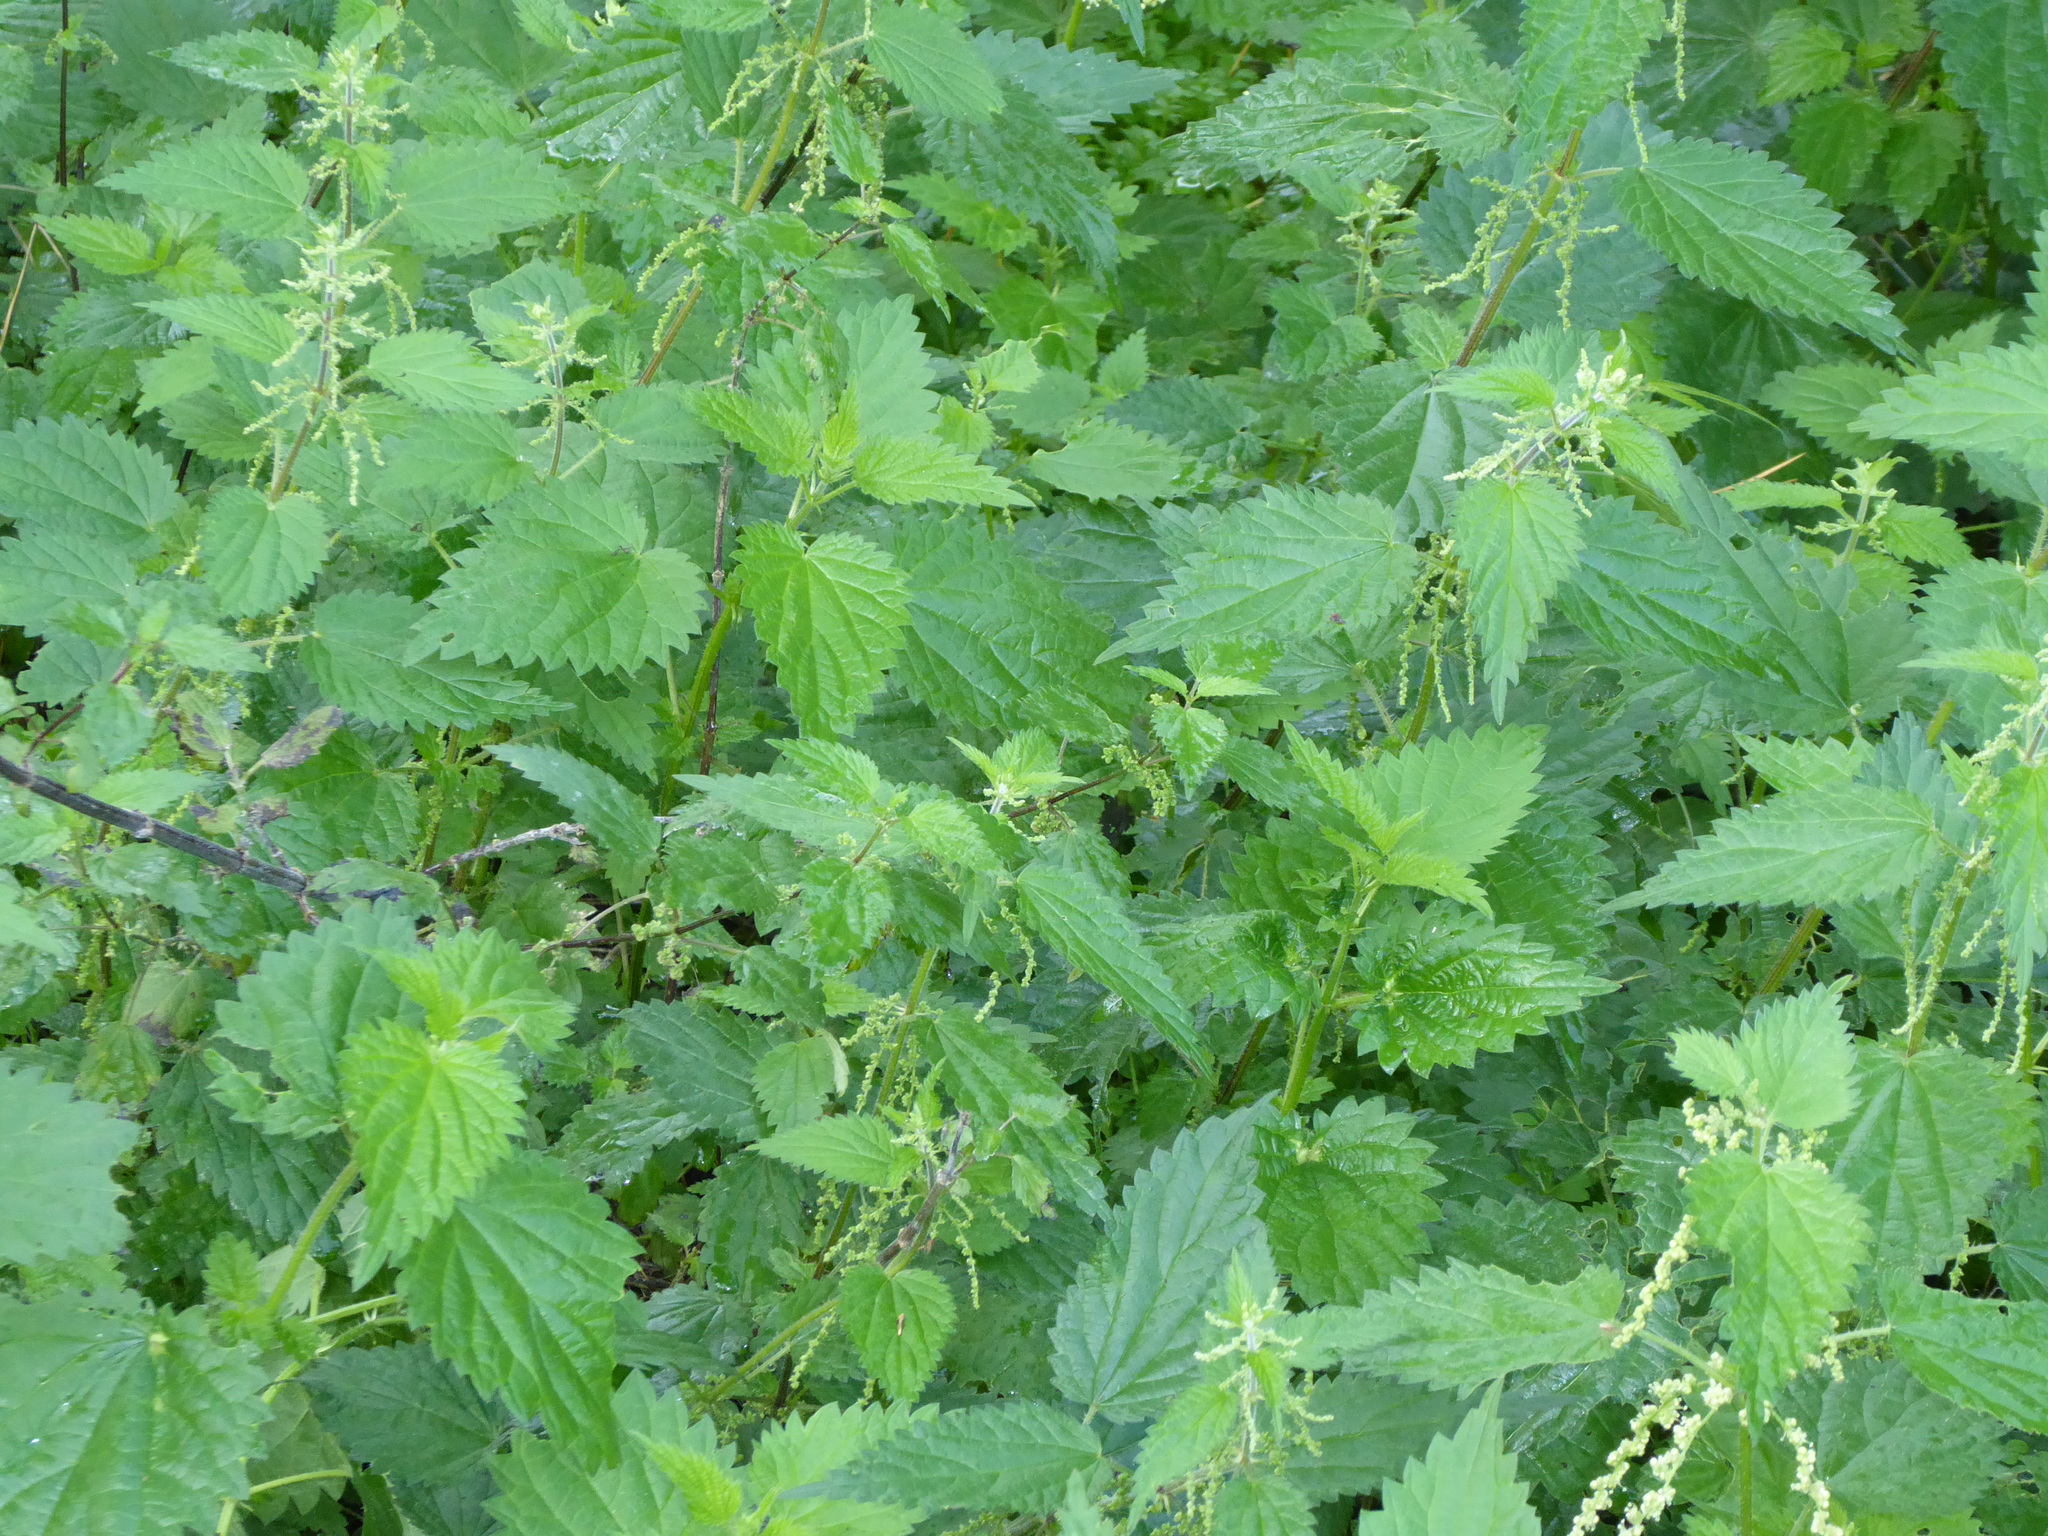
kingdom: Plantae
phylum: Tracheophyta
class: Magnoliopsida
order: Rosales
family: Urticaceae
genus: Urtica
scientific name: Urtica dioica
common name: Common nettle
